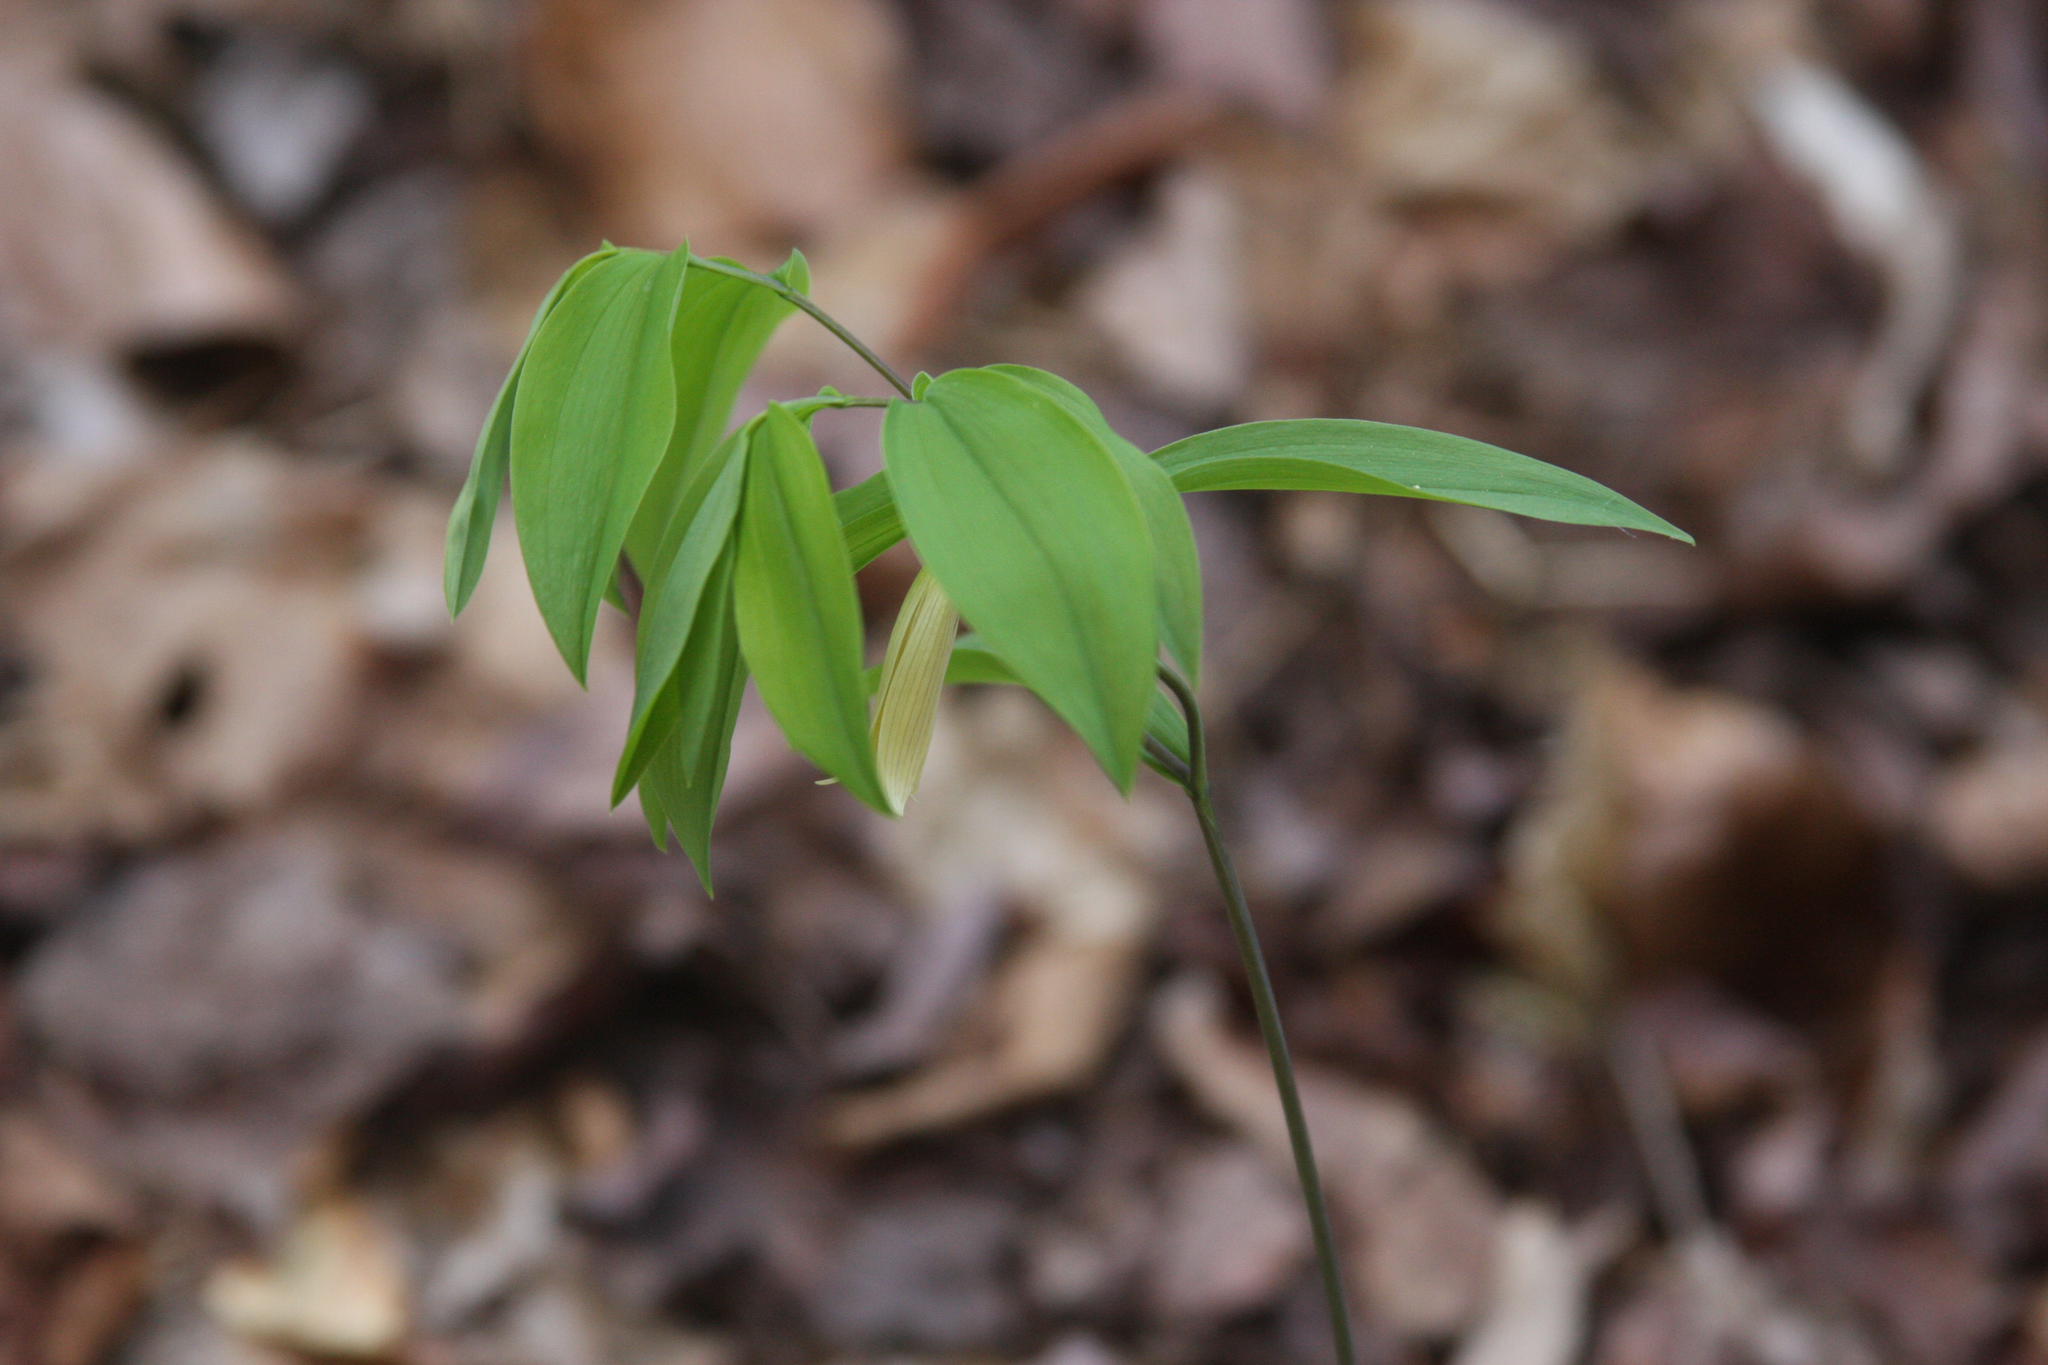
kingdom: Plantae
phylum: Tracheophyta
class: Liliopsida
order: Liliales
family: Colchicaceae
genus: Uvularia
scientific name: Uvularia sessilifolia
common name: Straw-lily
